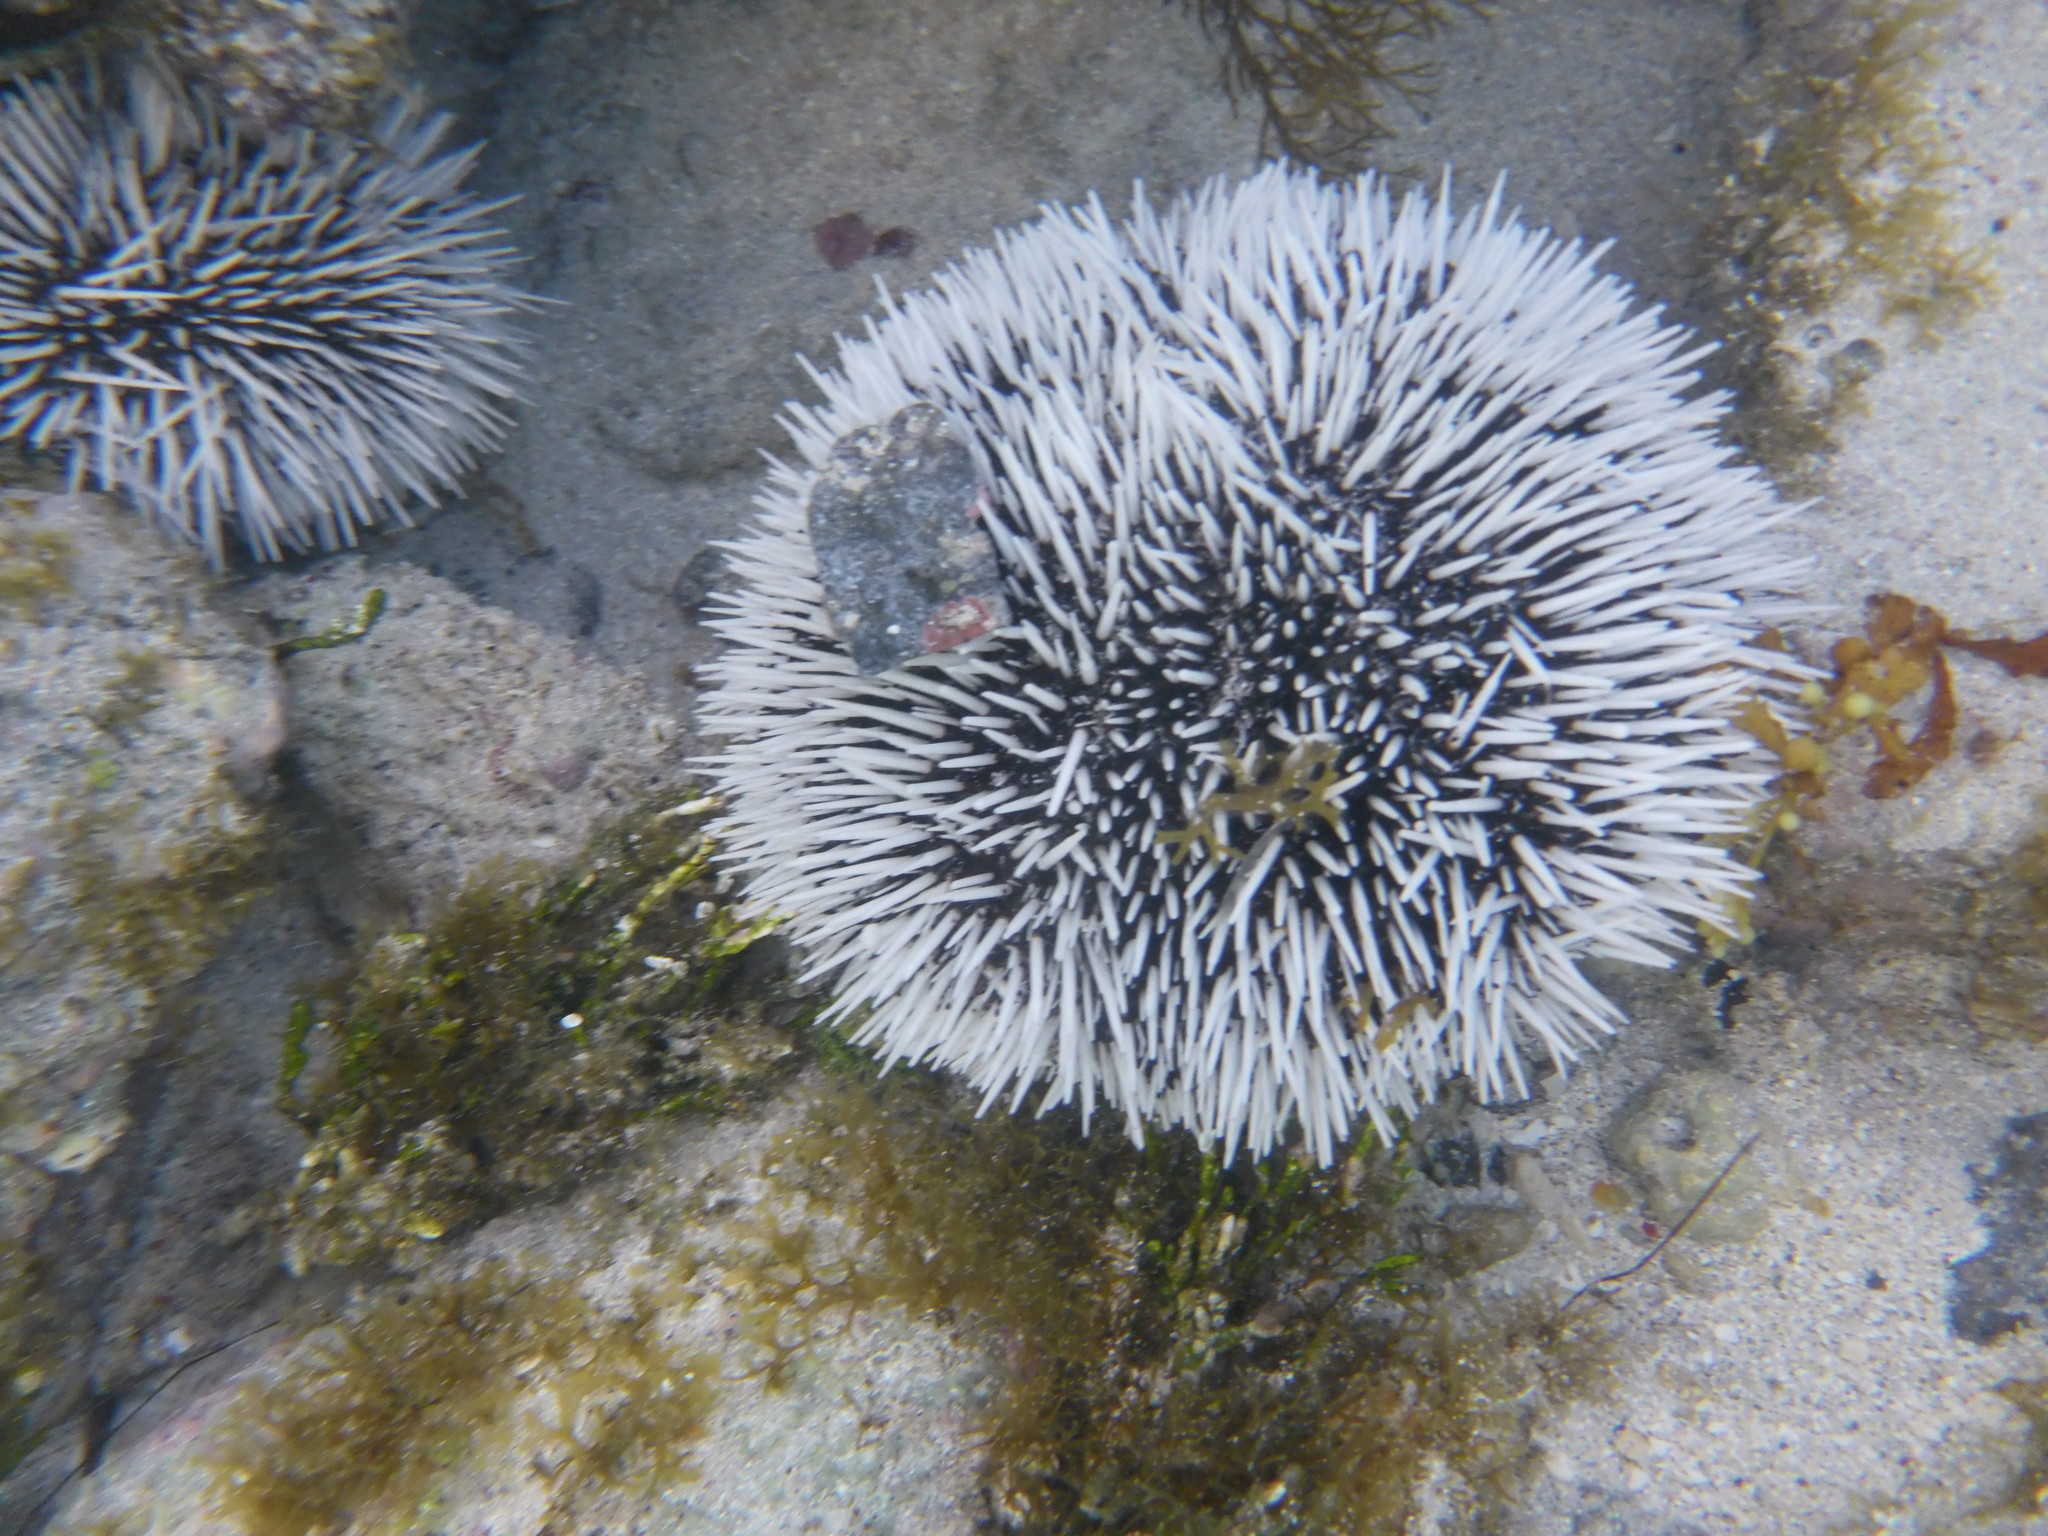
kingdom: Animalia
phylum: Echinodermata
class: Echinoidea
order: Camarodonta
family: Toxopneustidae
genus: Tripneustes
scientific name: Tripneustes ventricosus
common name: West indian sea egg
